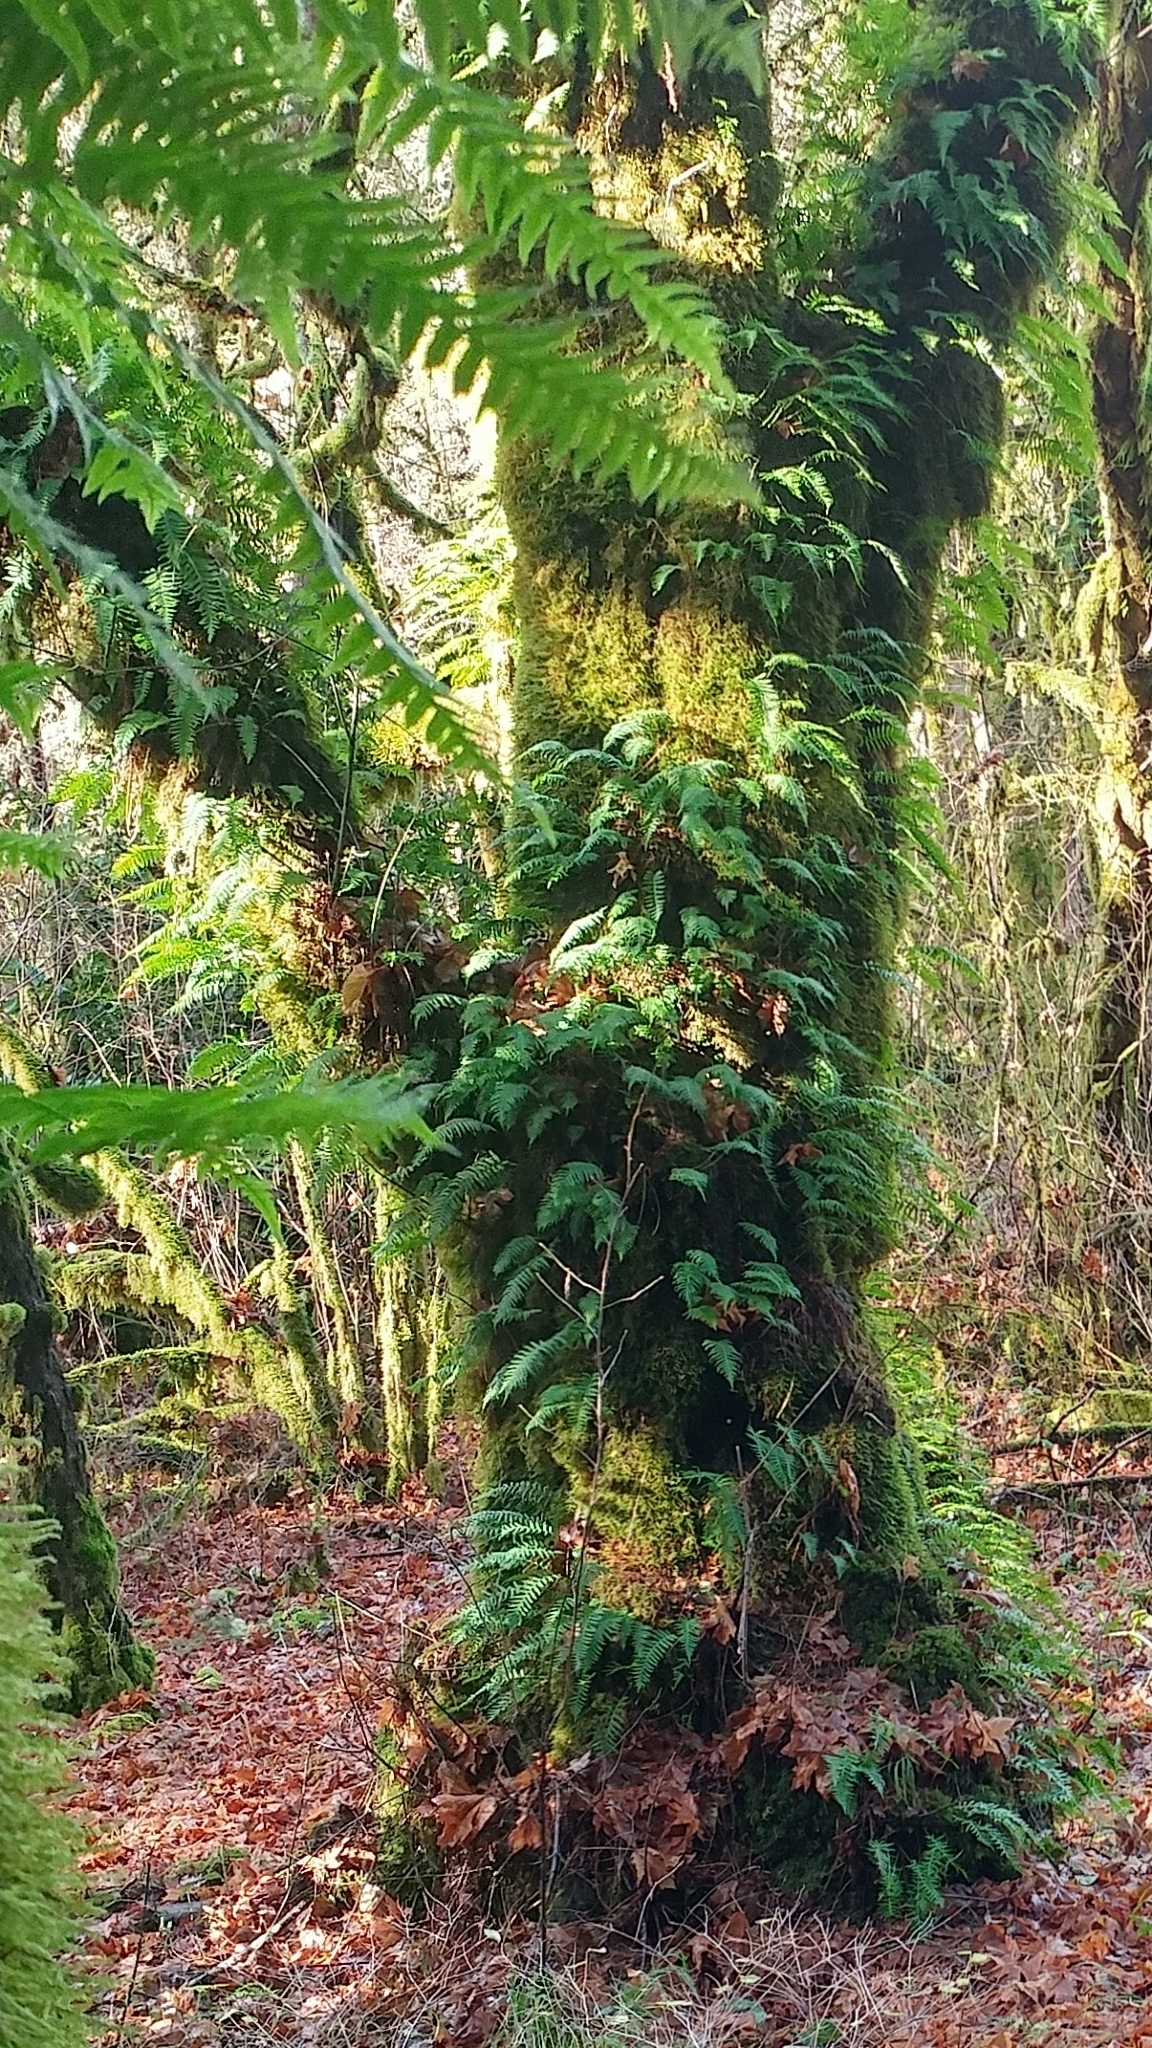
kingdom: Plantae
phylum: Tracheophyta
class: Polypodiopsida
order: Polypodiales
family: Polypodiaceae
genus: Polypodium
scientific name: Polypodium glycyrrhiza
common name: Licorice fern
